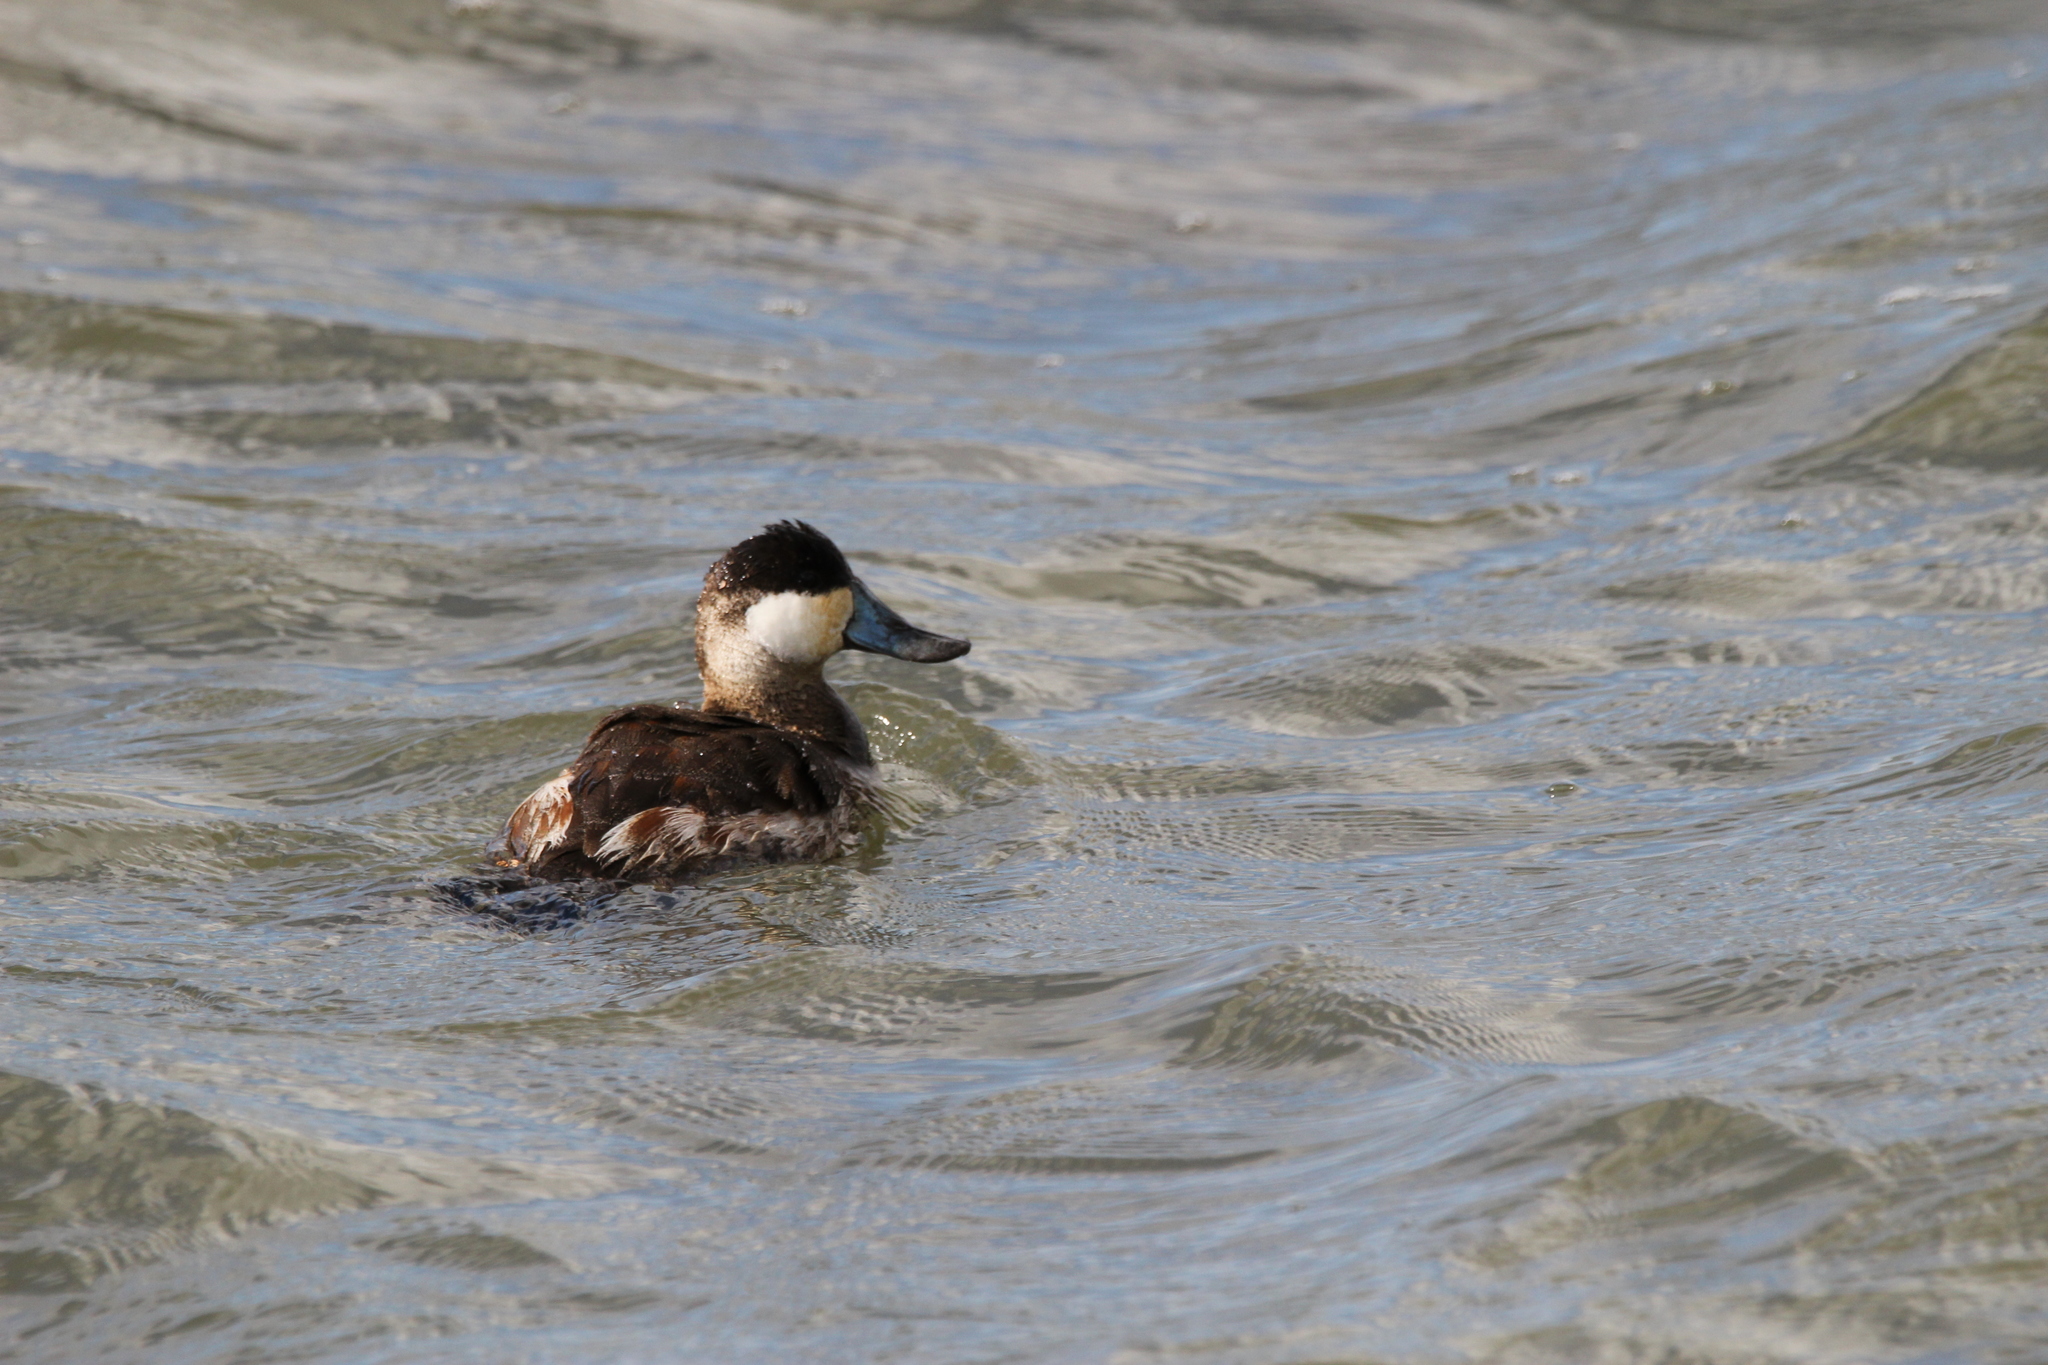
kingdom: Animalia
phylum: Chordata
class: Aves
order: Anseriformes
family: Anatidae
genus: Oxyura
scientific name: Oxyura jamaicensis
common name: Ruddy duck
